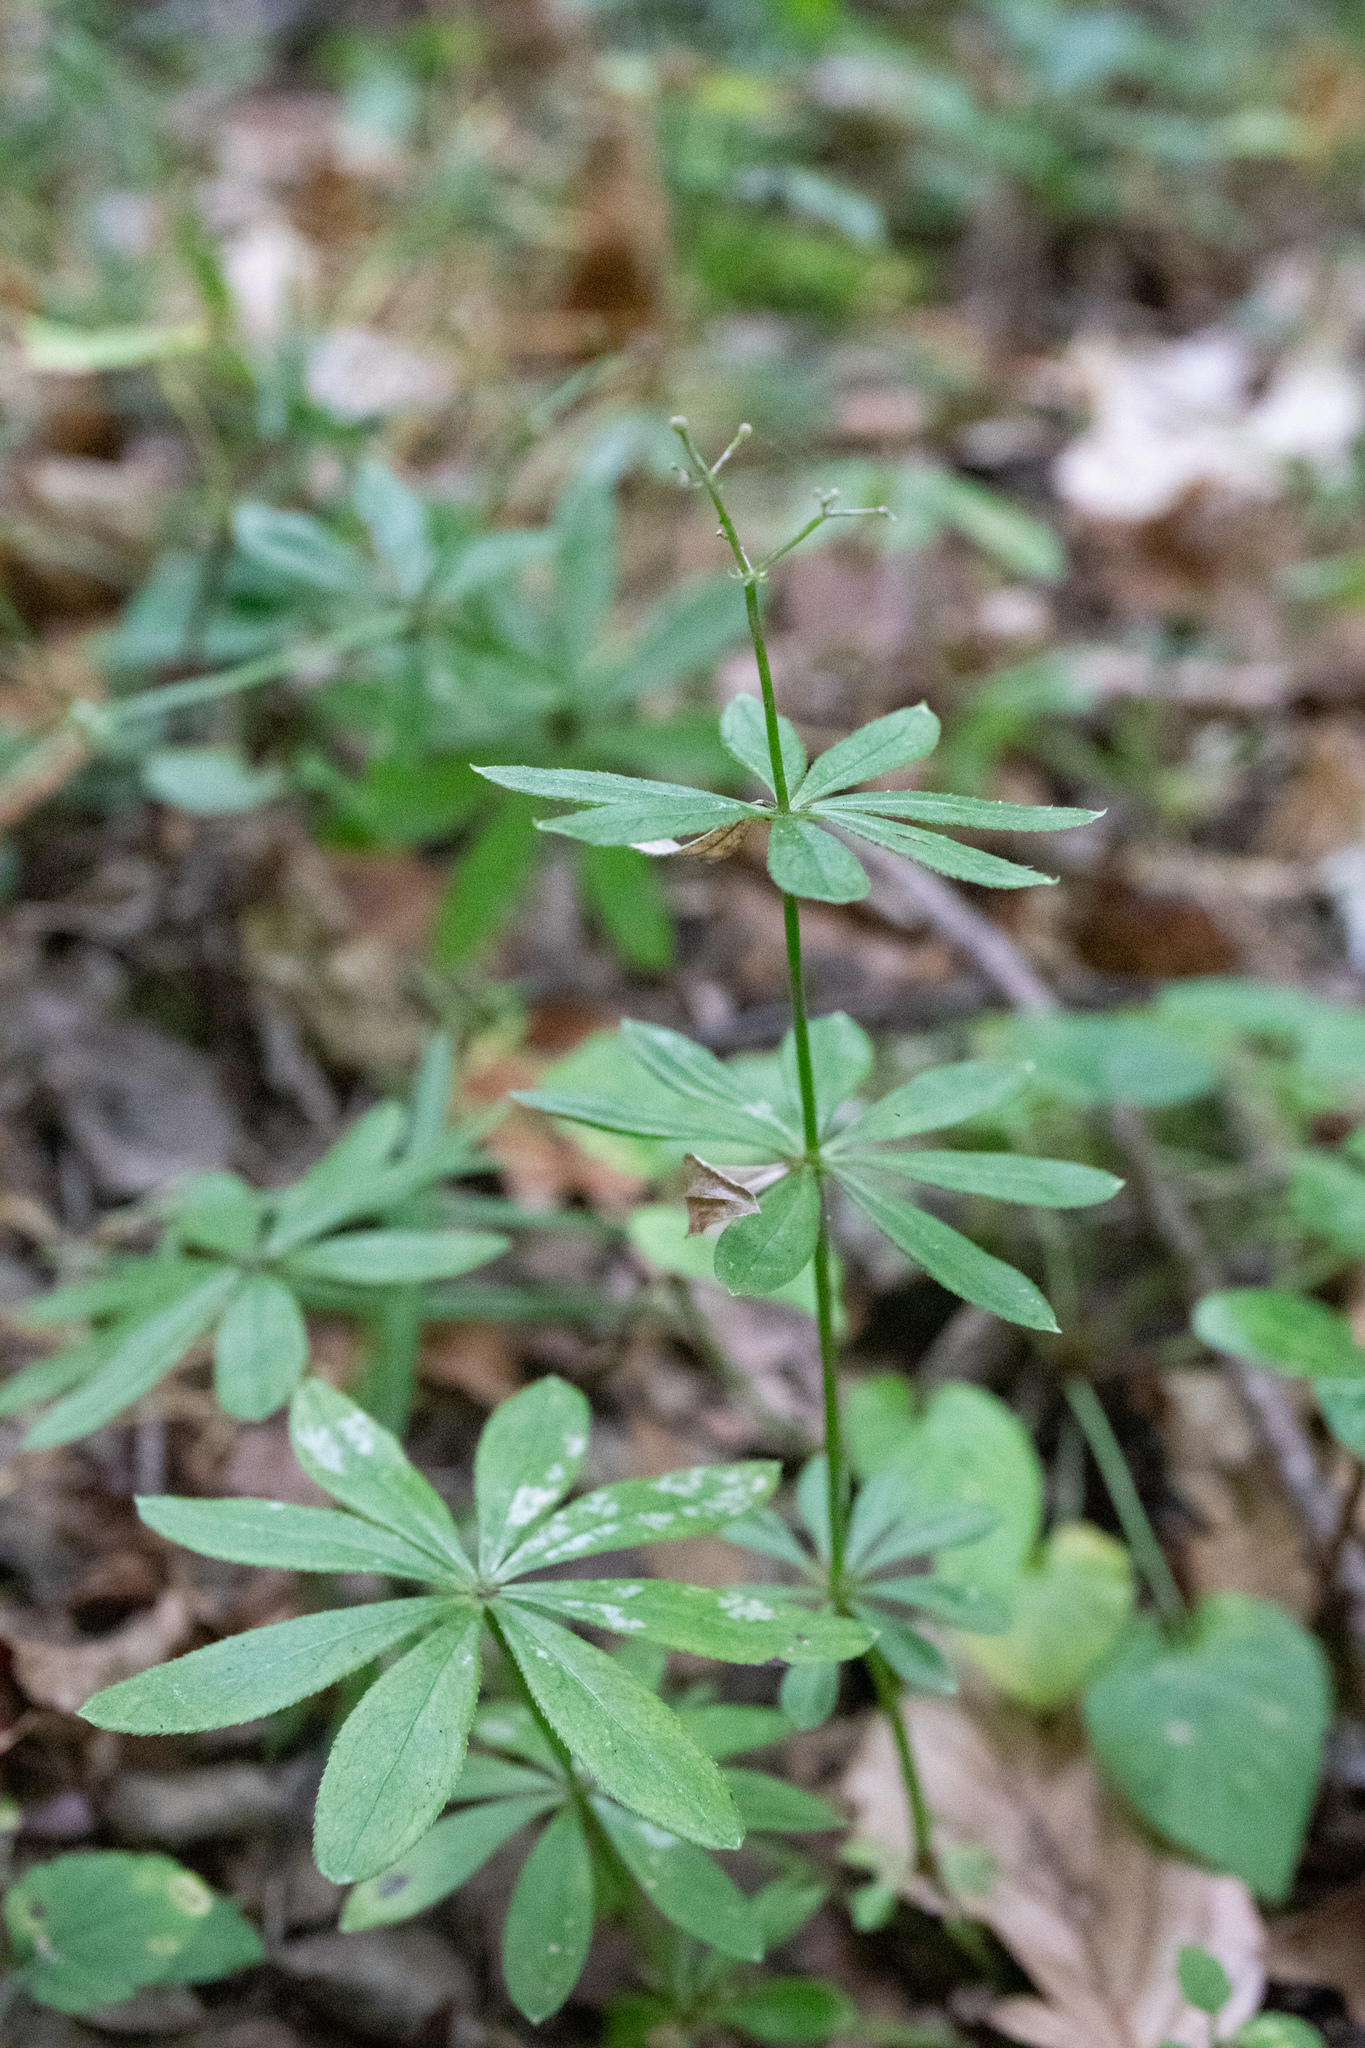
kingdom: Plantae
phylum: Tracheophyta
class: Magnoliopsida
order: Gentianales
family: Rubiaceae
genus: Galium
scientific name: Galium odoratum
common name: Sweet woodruff
